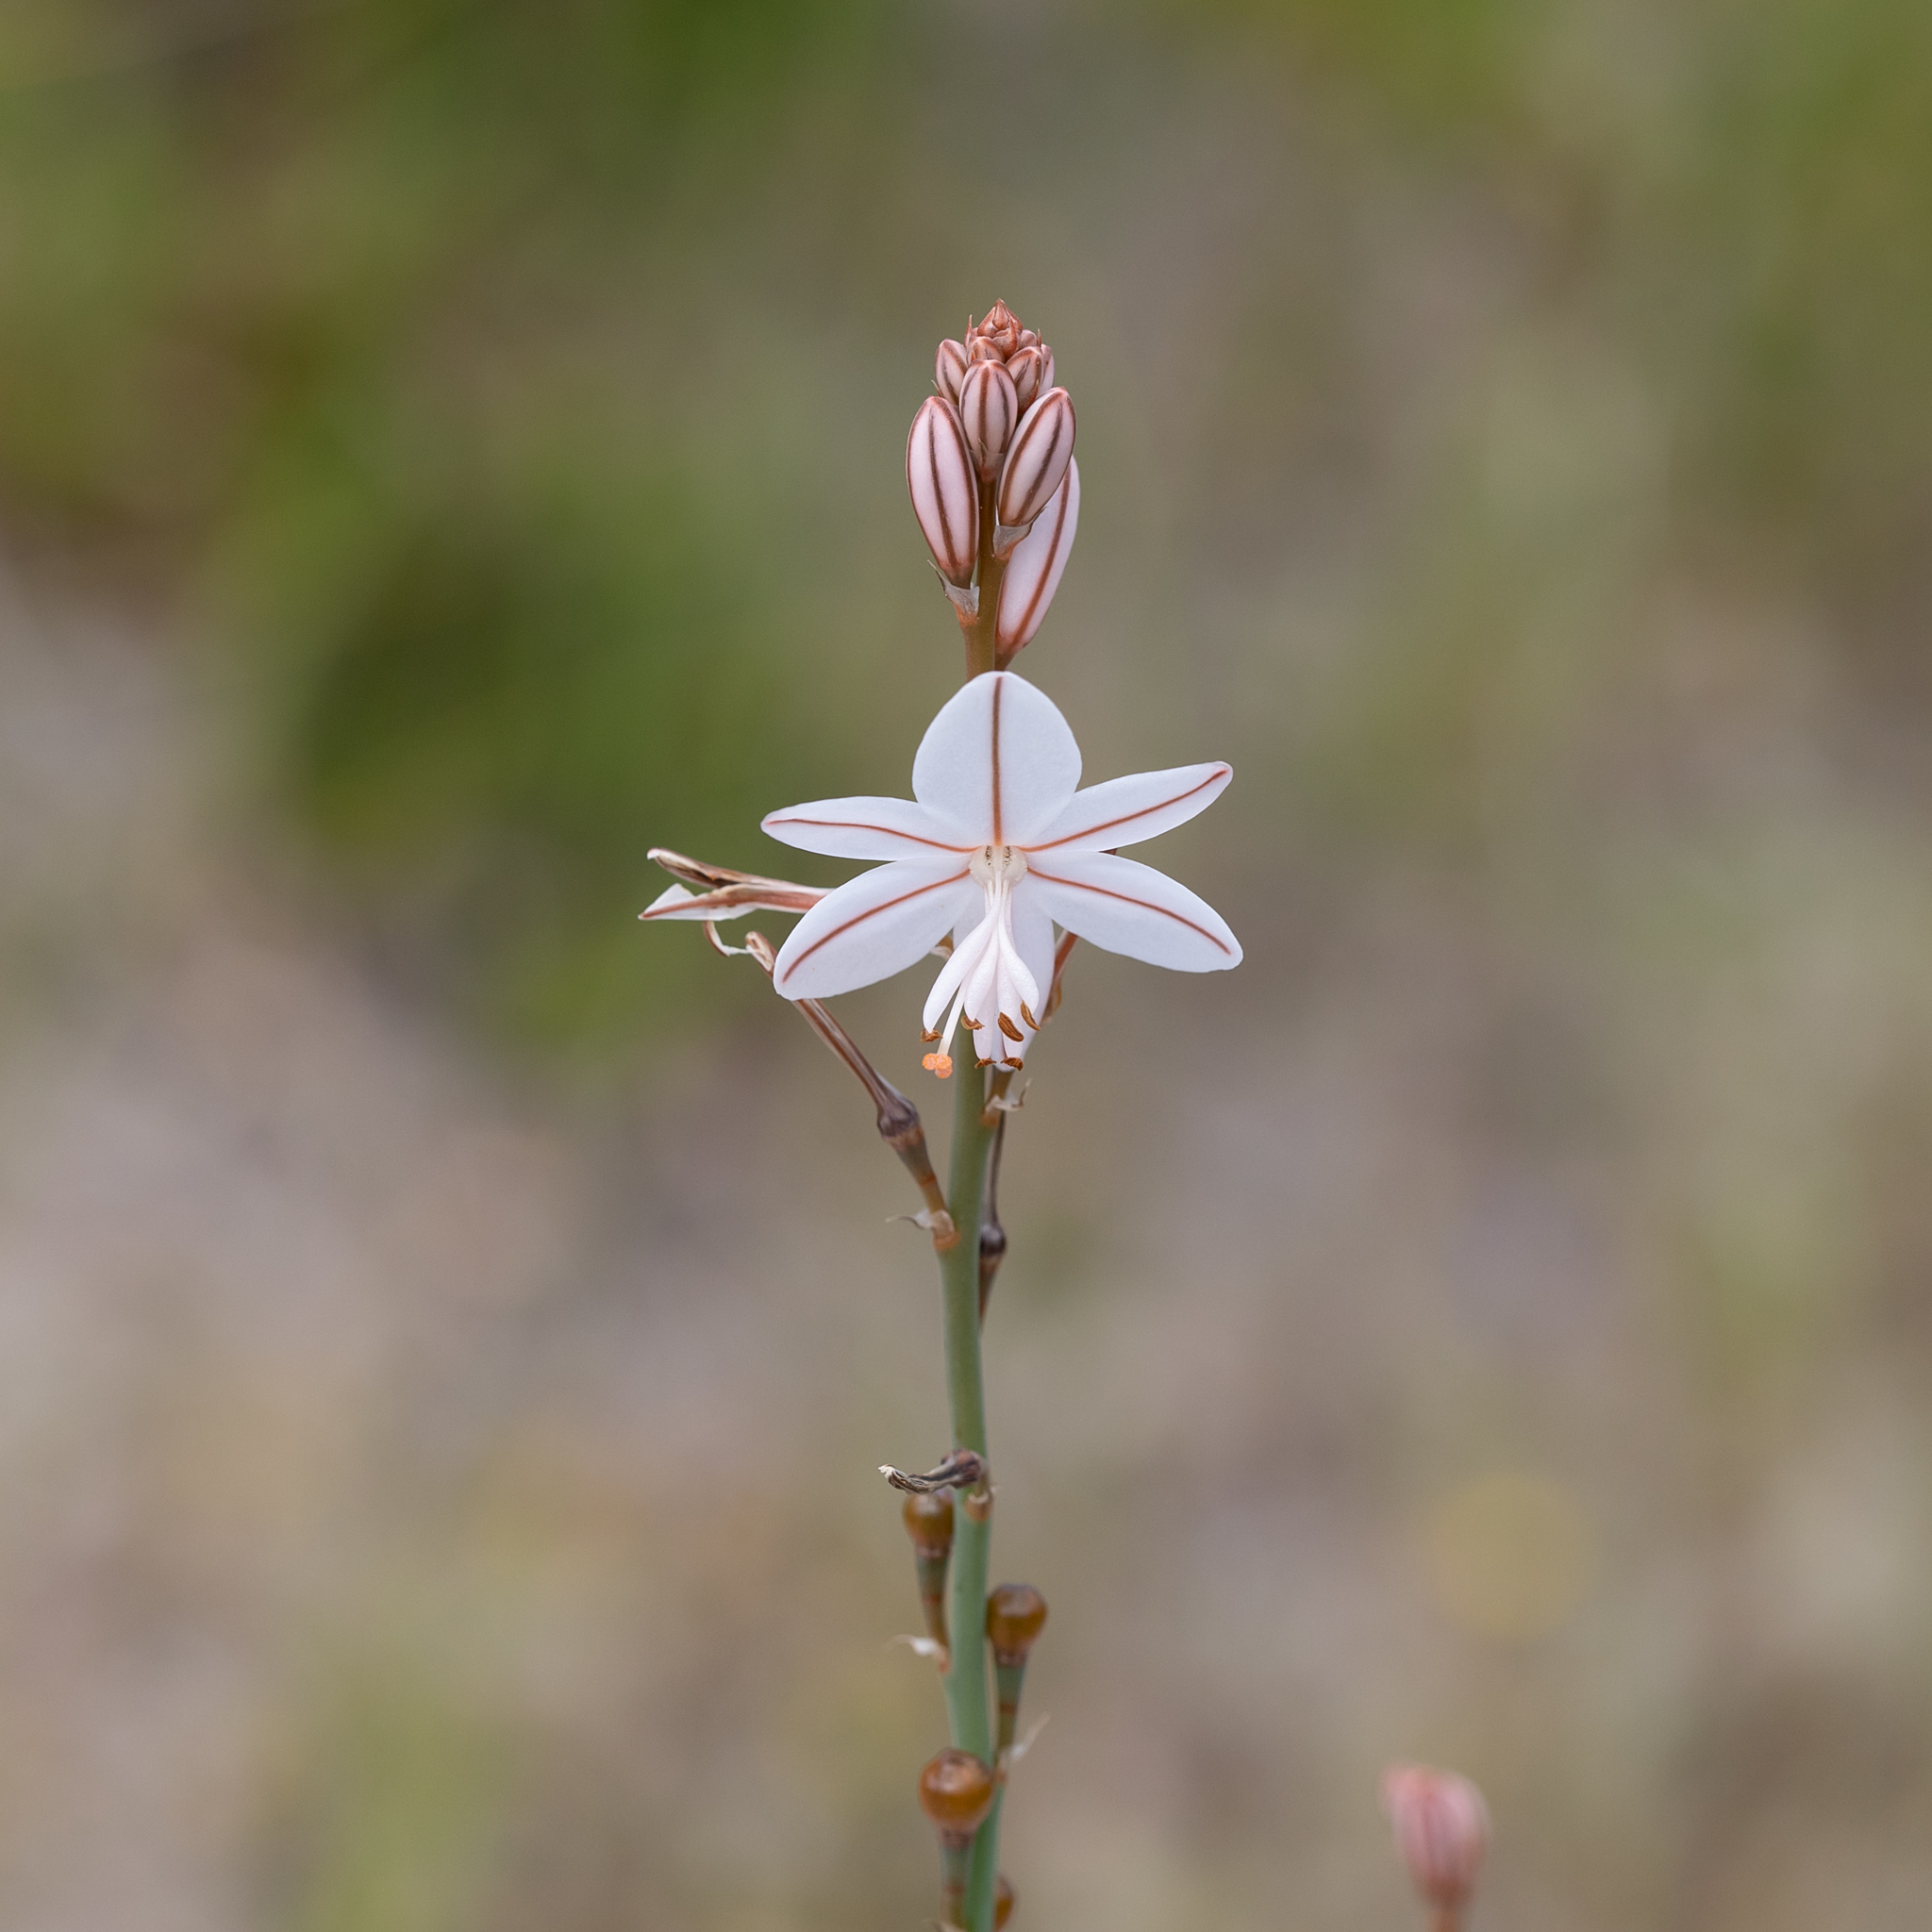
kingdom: Plantae
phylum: Tracheophyta
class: Liliopsida
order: Asparagales
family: Asphodelaceae
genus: Asphodelus
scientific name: Asphodelus fistulosus
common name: Onionweed
